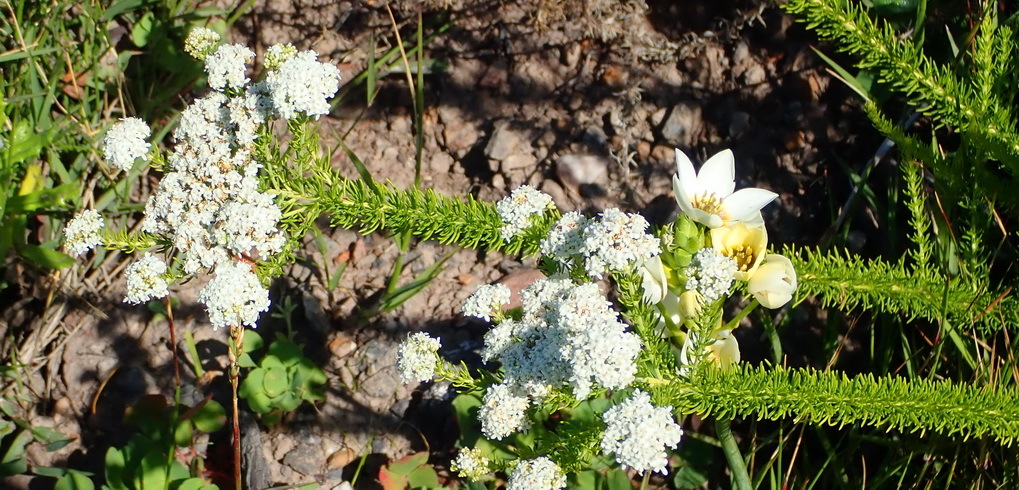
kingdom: Plantae
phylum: Tracheophyta
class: Magnoliopsida
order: Lamiales
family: Scrophulariaceae
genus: Selago
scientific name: Selago corymbosa
